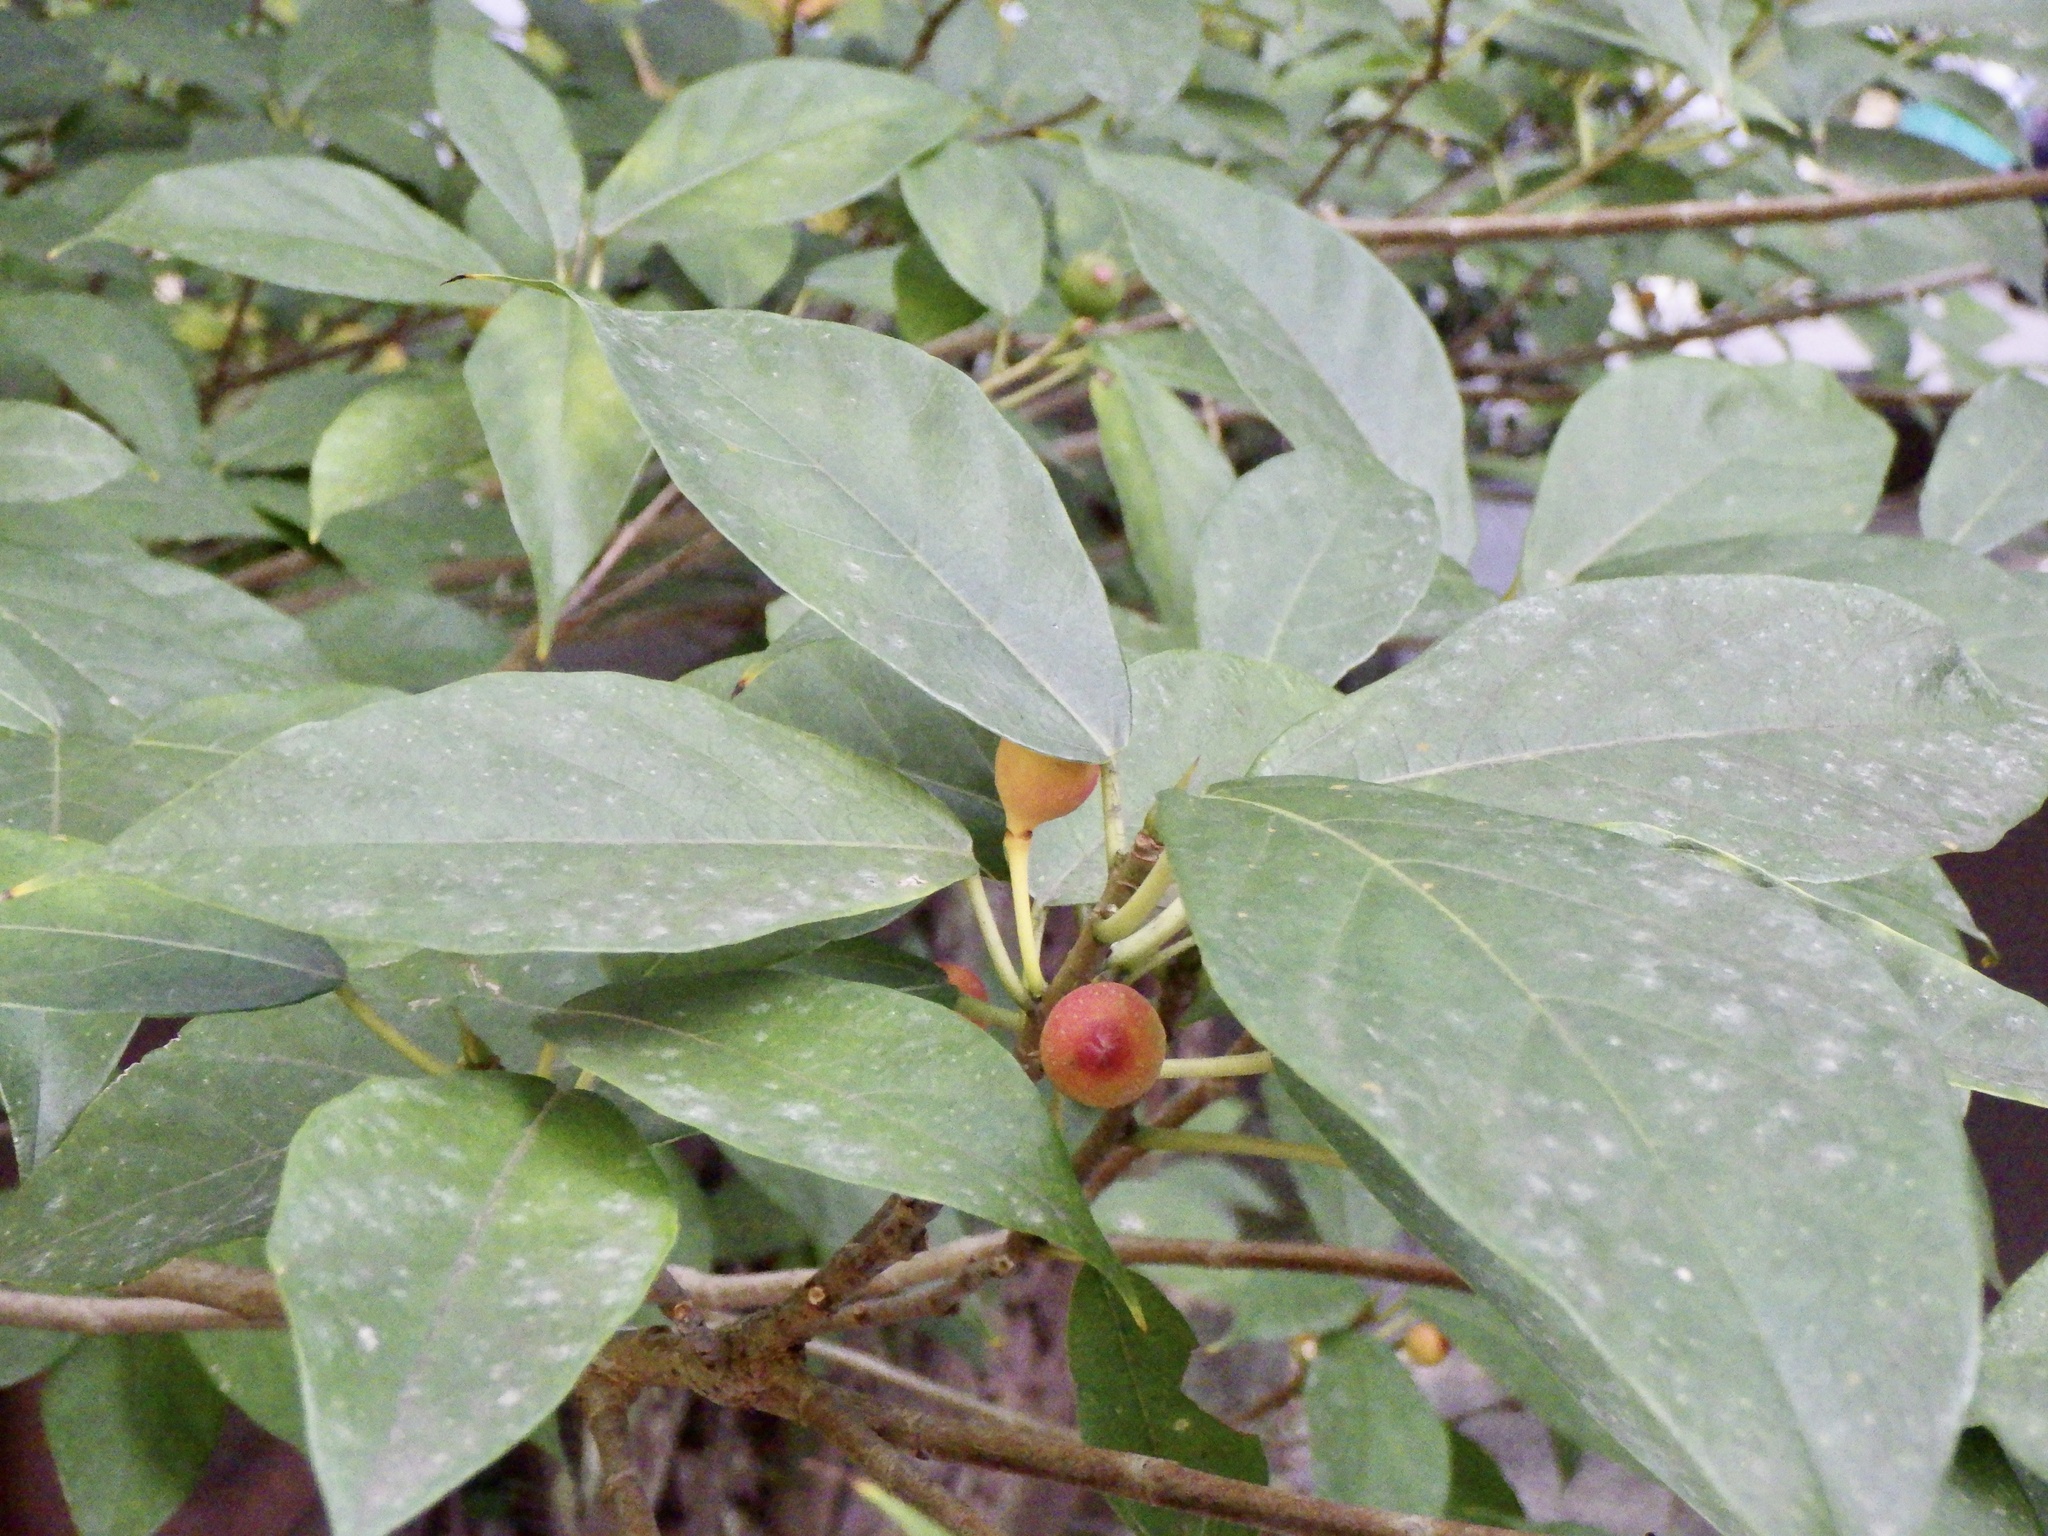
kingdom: Plantae
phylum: Tracheophyta
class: Magnoliopsida
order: Rosales
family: Moraceae
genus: Ficus
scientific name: Ficus erecta
